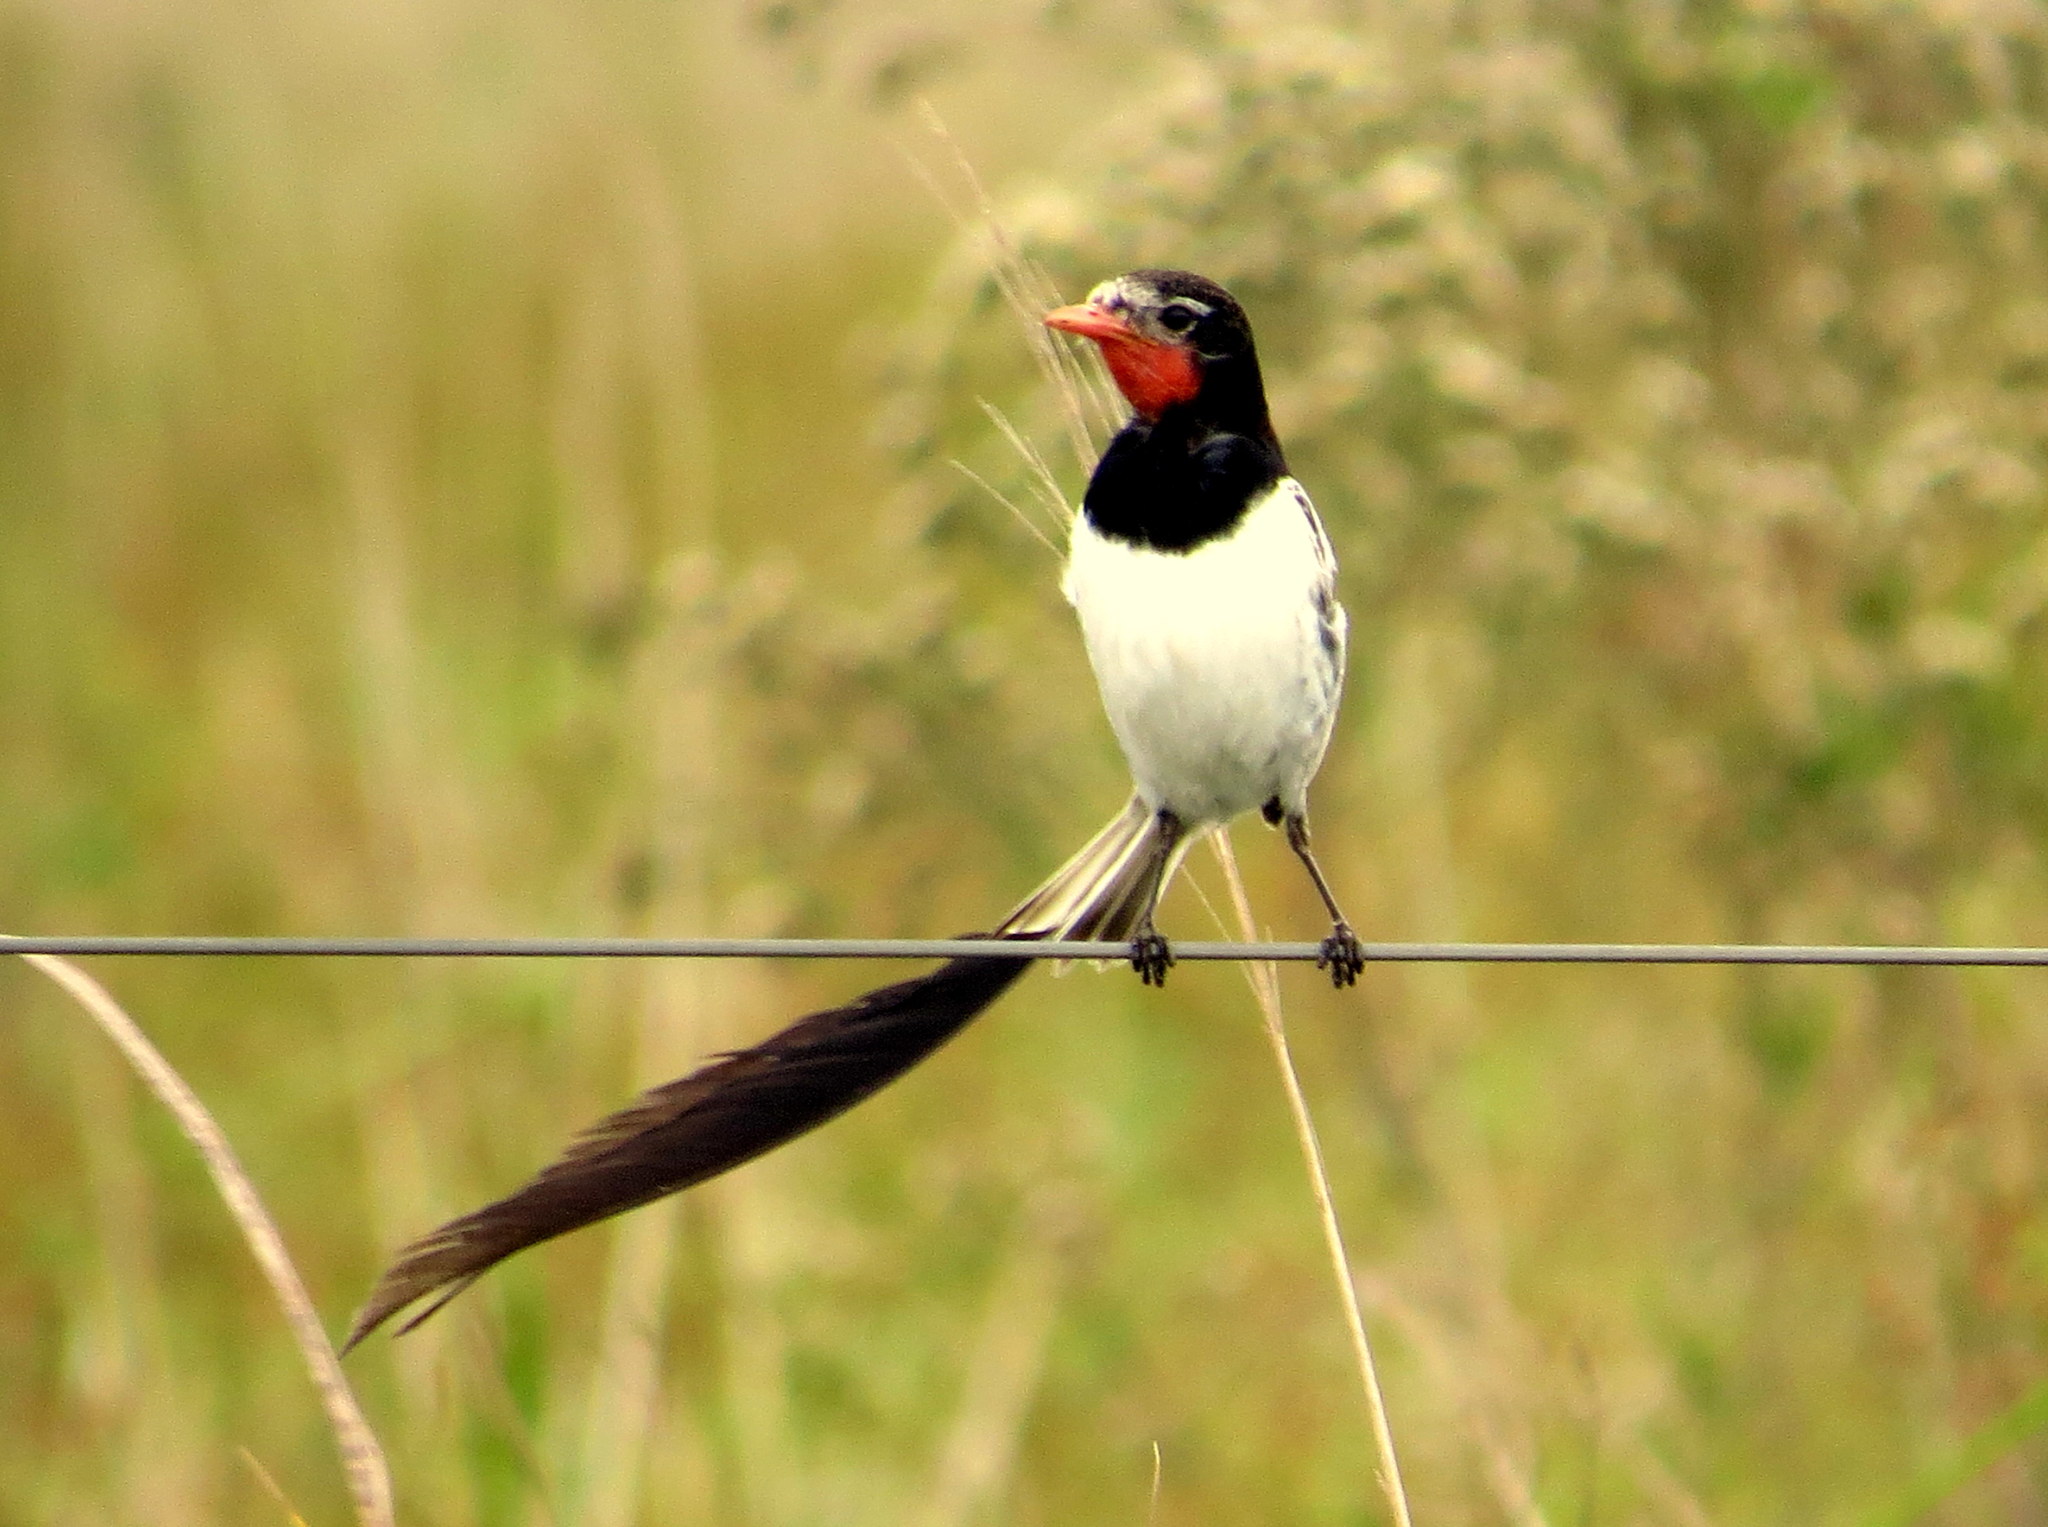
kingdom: Animalia
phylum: Chordata
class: Aves
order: Passeriformes
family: Tyrannidae
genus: Alectrurus
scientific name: Alectrurus risora
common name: Strange-tailed tyrant
